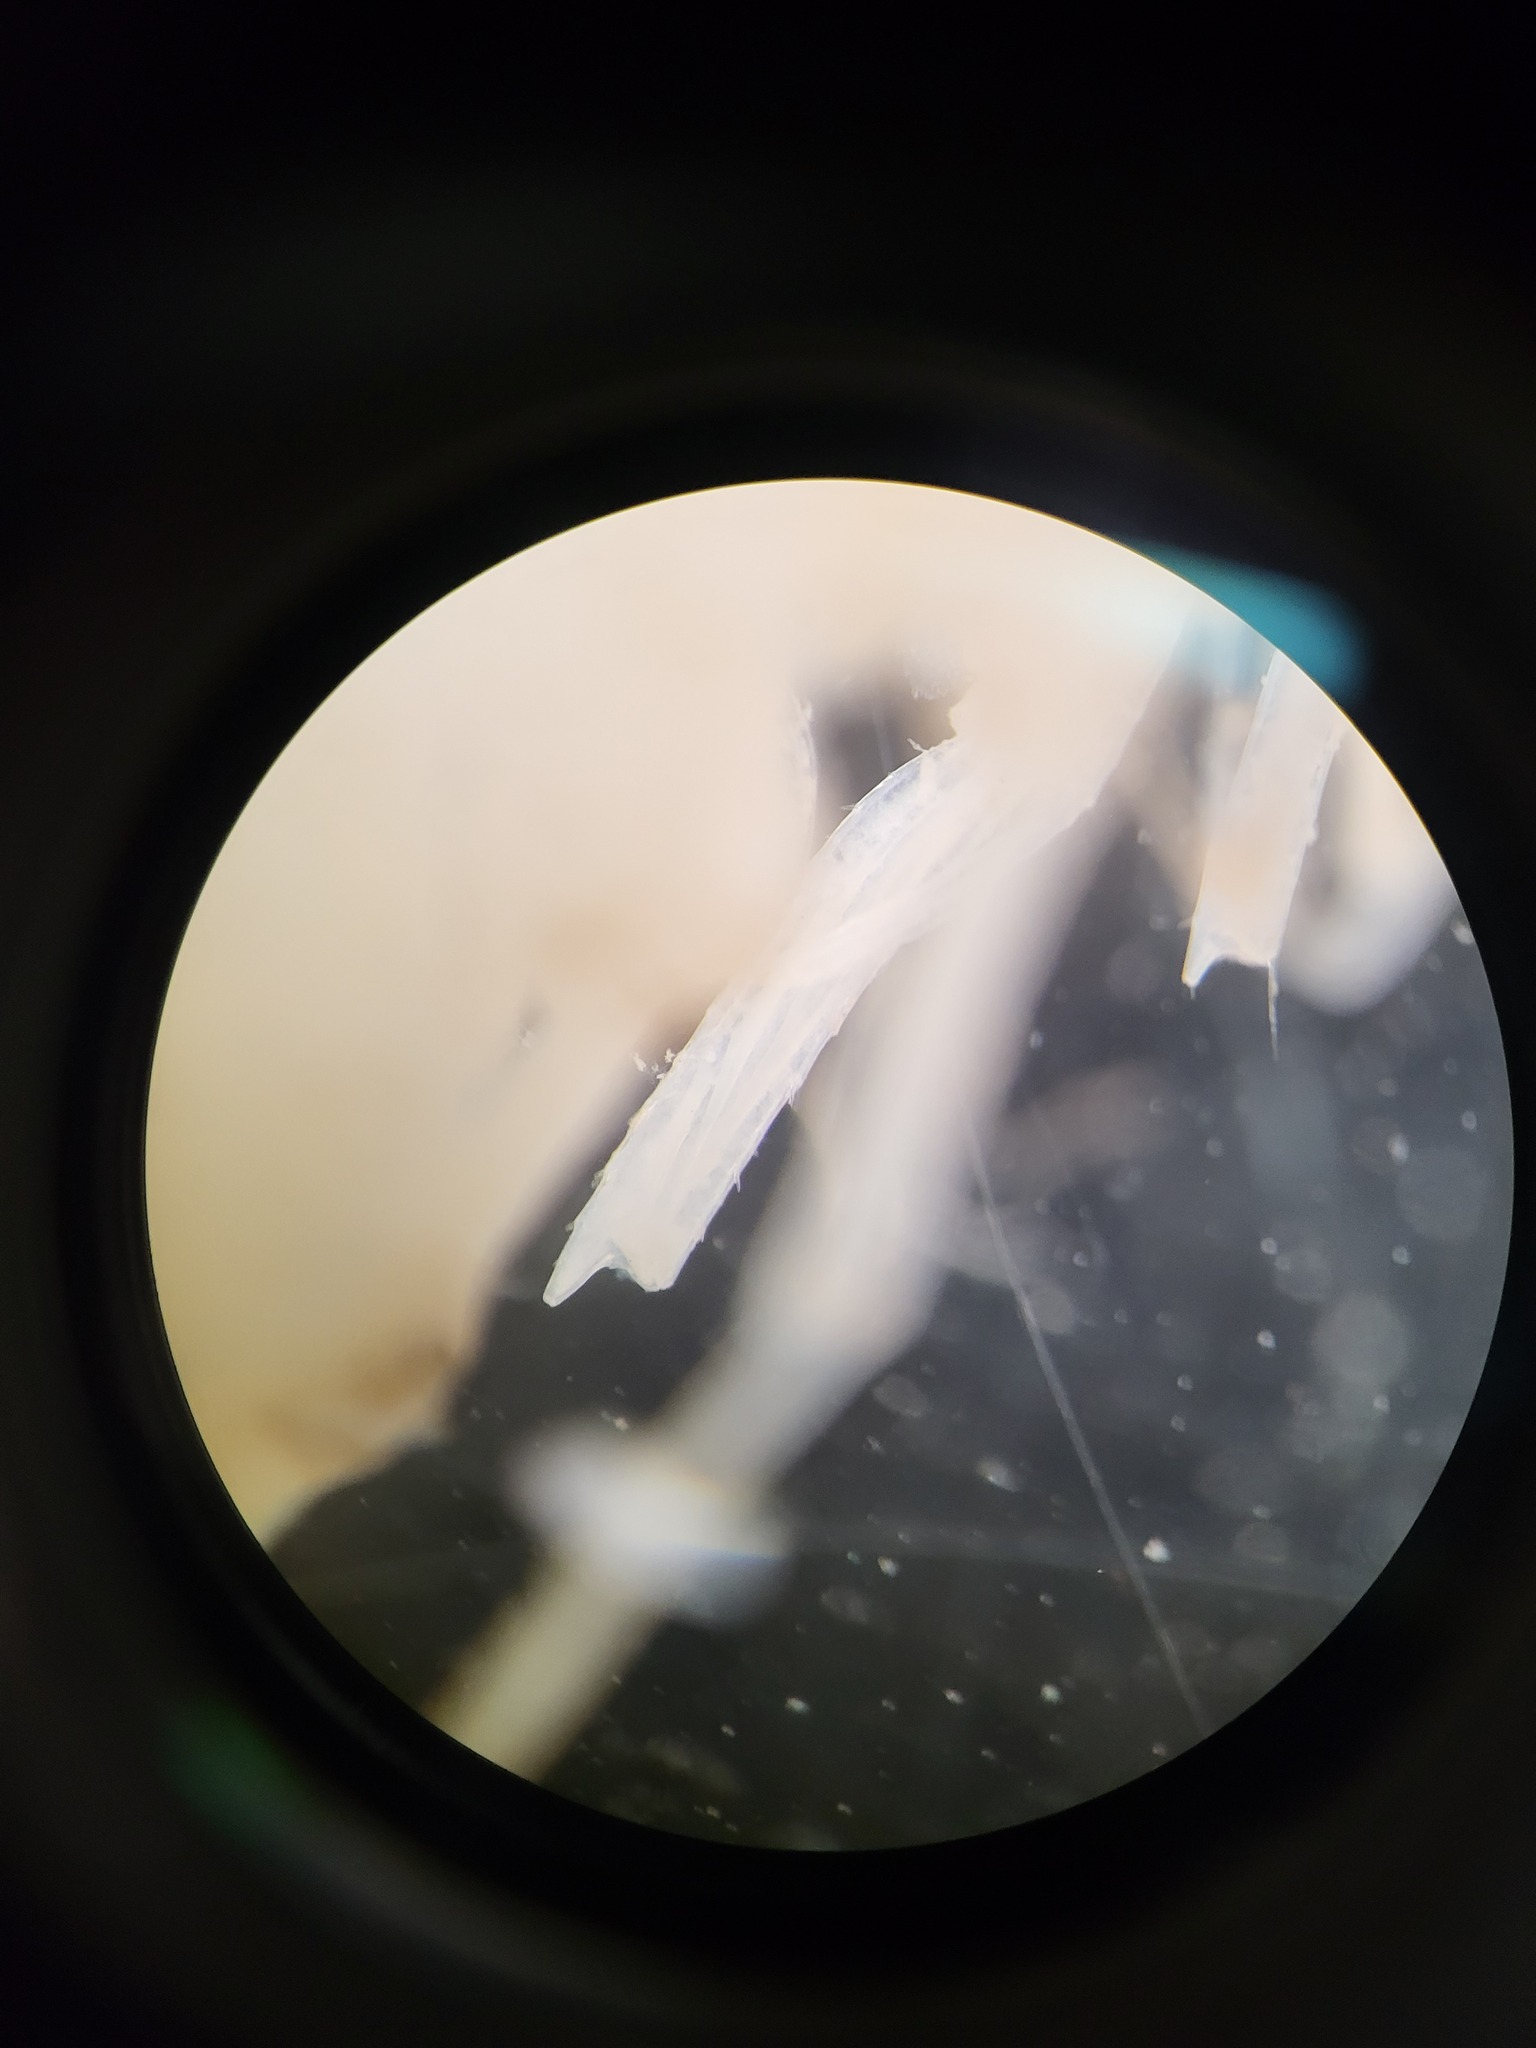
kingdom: Animalia
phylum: Arthropoda
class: Malacostraca
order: Amphipoda
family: Eusiridae
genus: Rhachotropis
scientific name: Rhachotropis inflata
